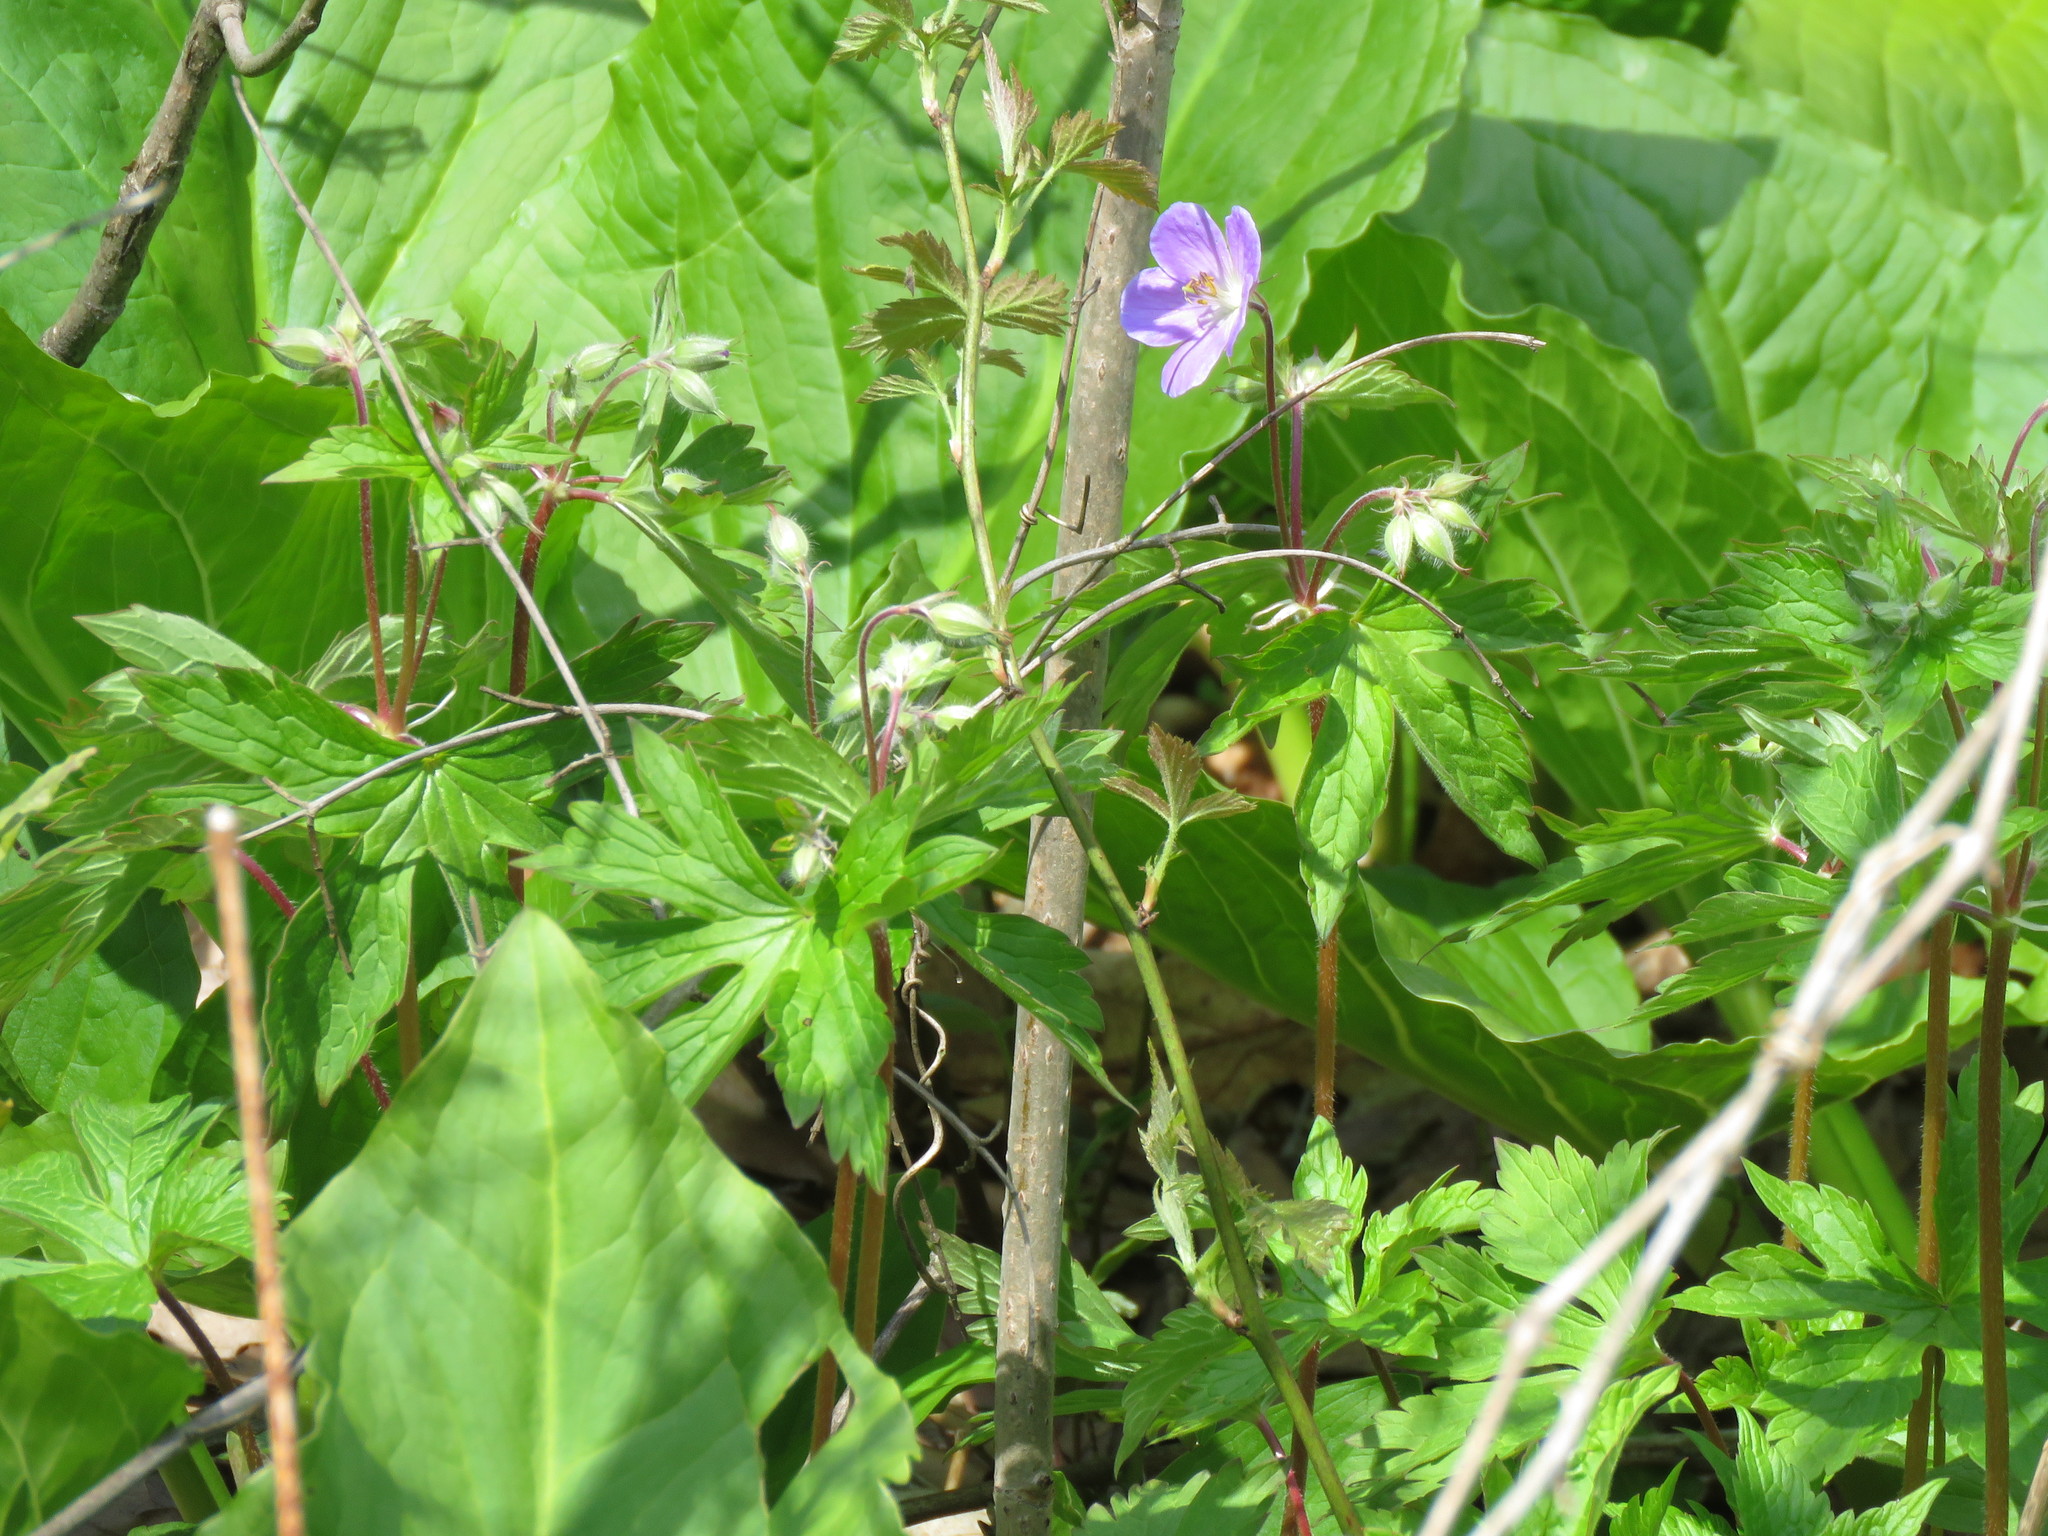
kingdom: Plantae
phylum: Tracheophyta
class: Magnoliopsida
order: Geraniales
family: Geraniaceae
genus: Geranium
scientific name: Geranium maculatum
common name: Spotted geranium
